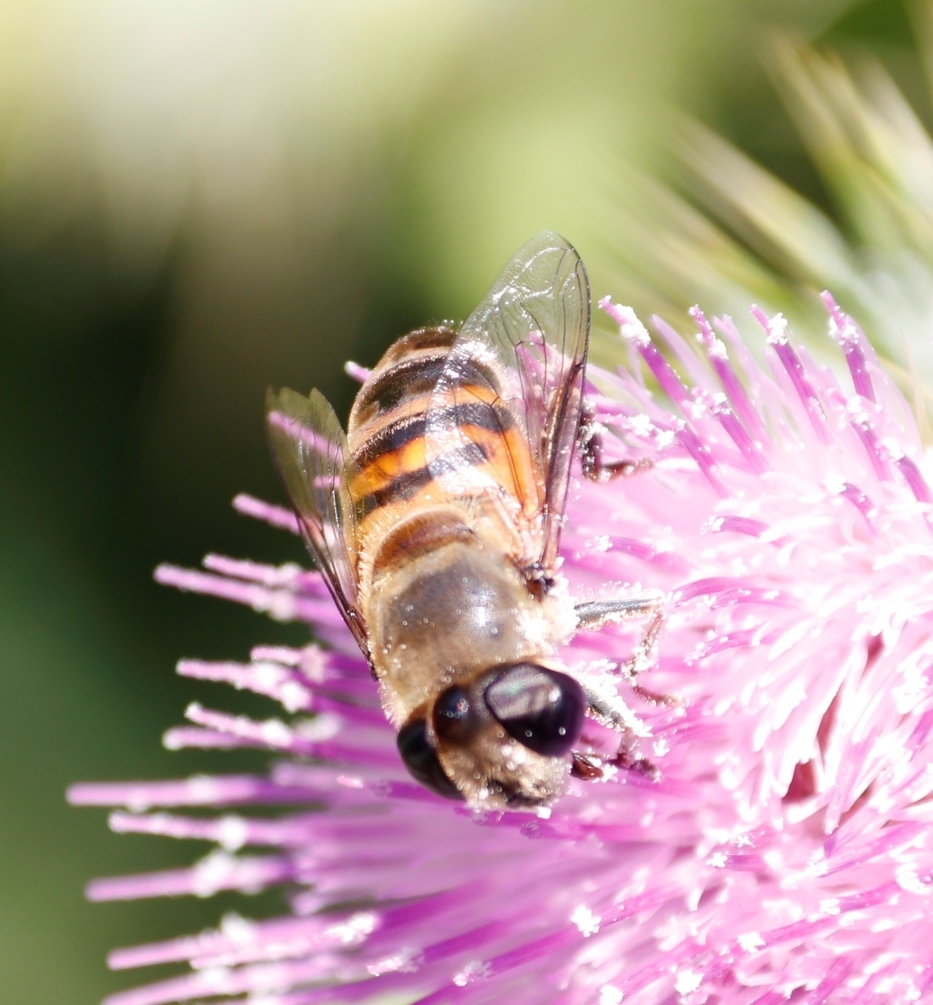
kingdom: Animalia
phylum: Arthropoda
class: Insecta
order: Diptera
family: Syrphidae
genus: Phytomia
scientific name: Phytomia incisa
